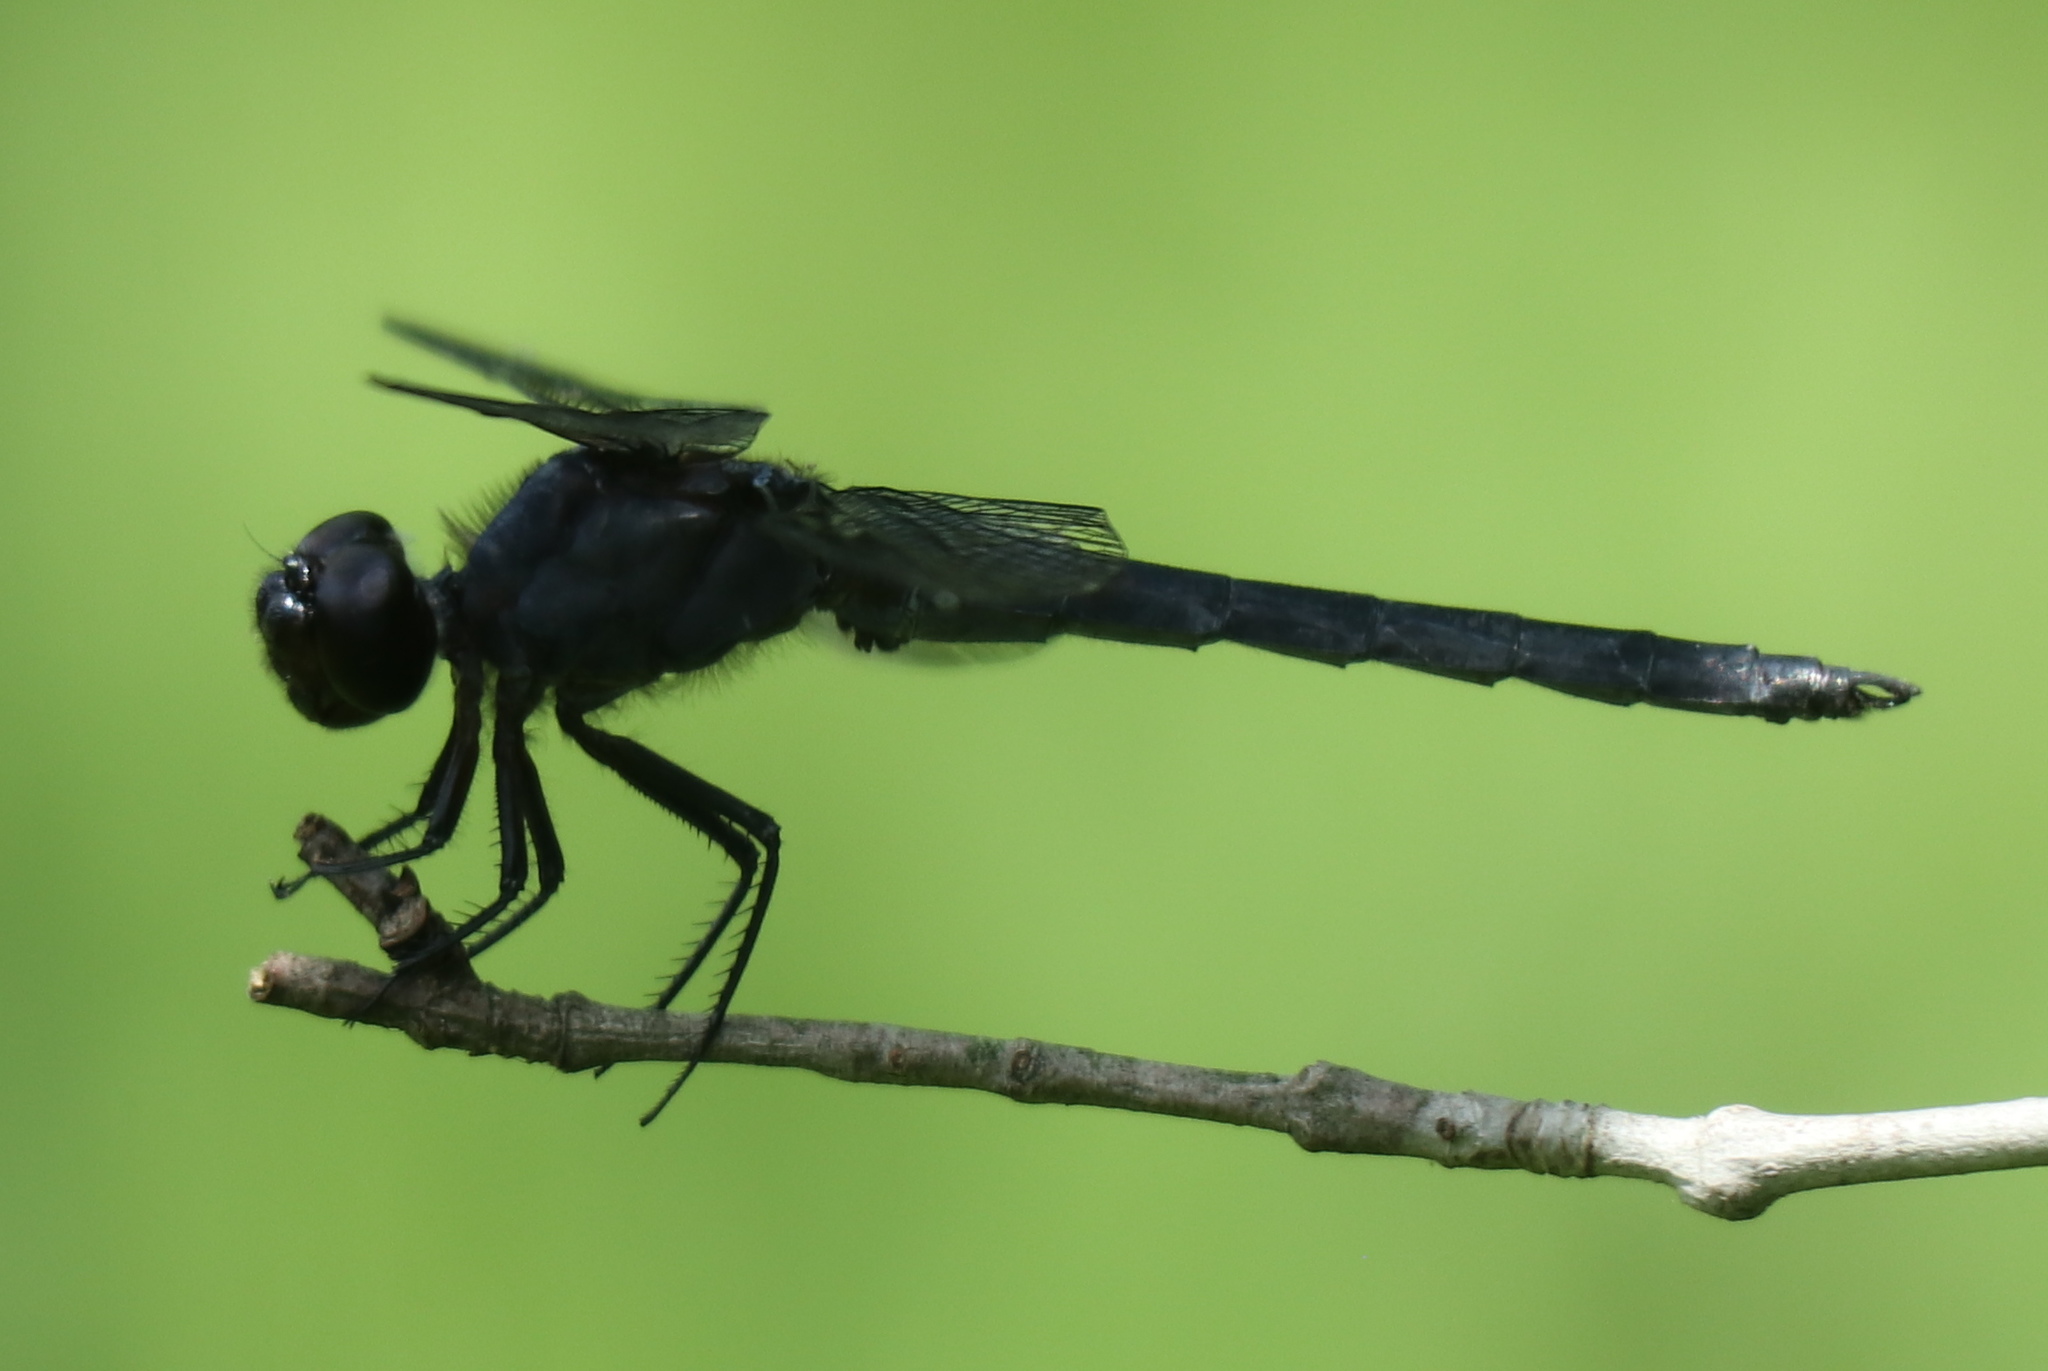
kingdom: Animalia
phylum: Arthropoda
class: Insecta
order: Odonata
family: Libellulidae
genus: Libellula
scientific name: Libellula incesta
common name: Slaty skimmer
